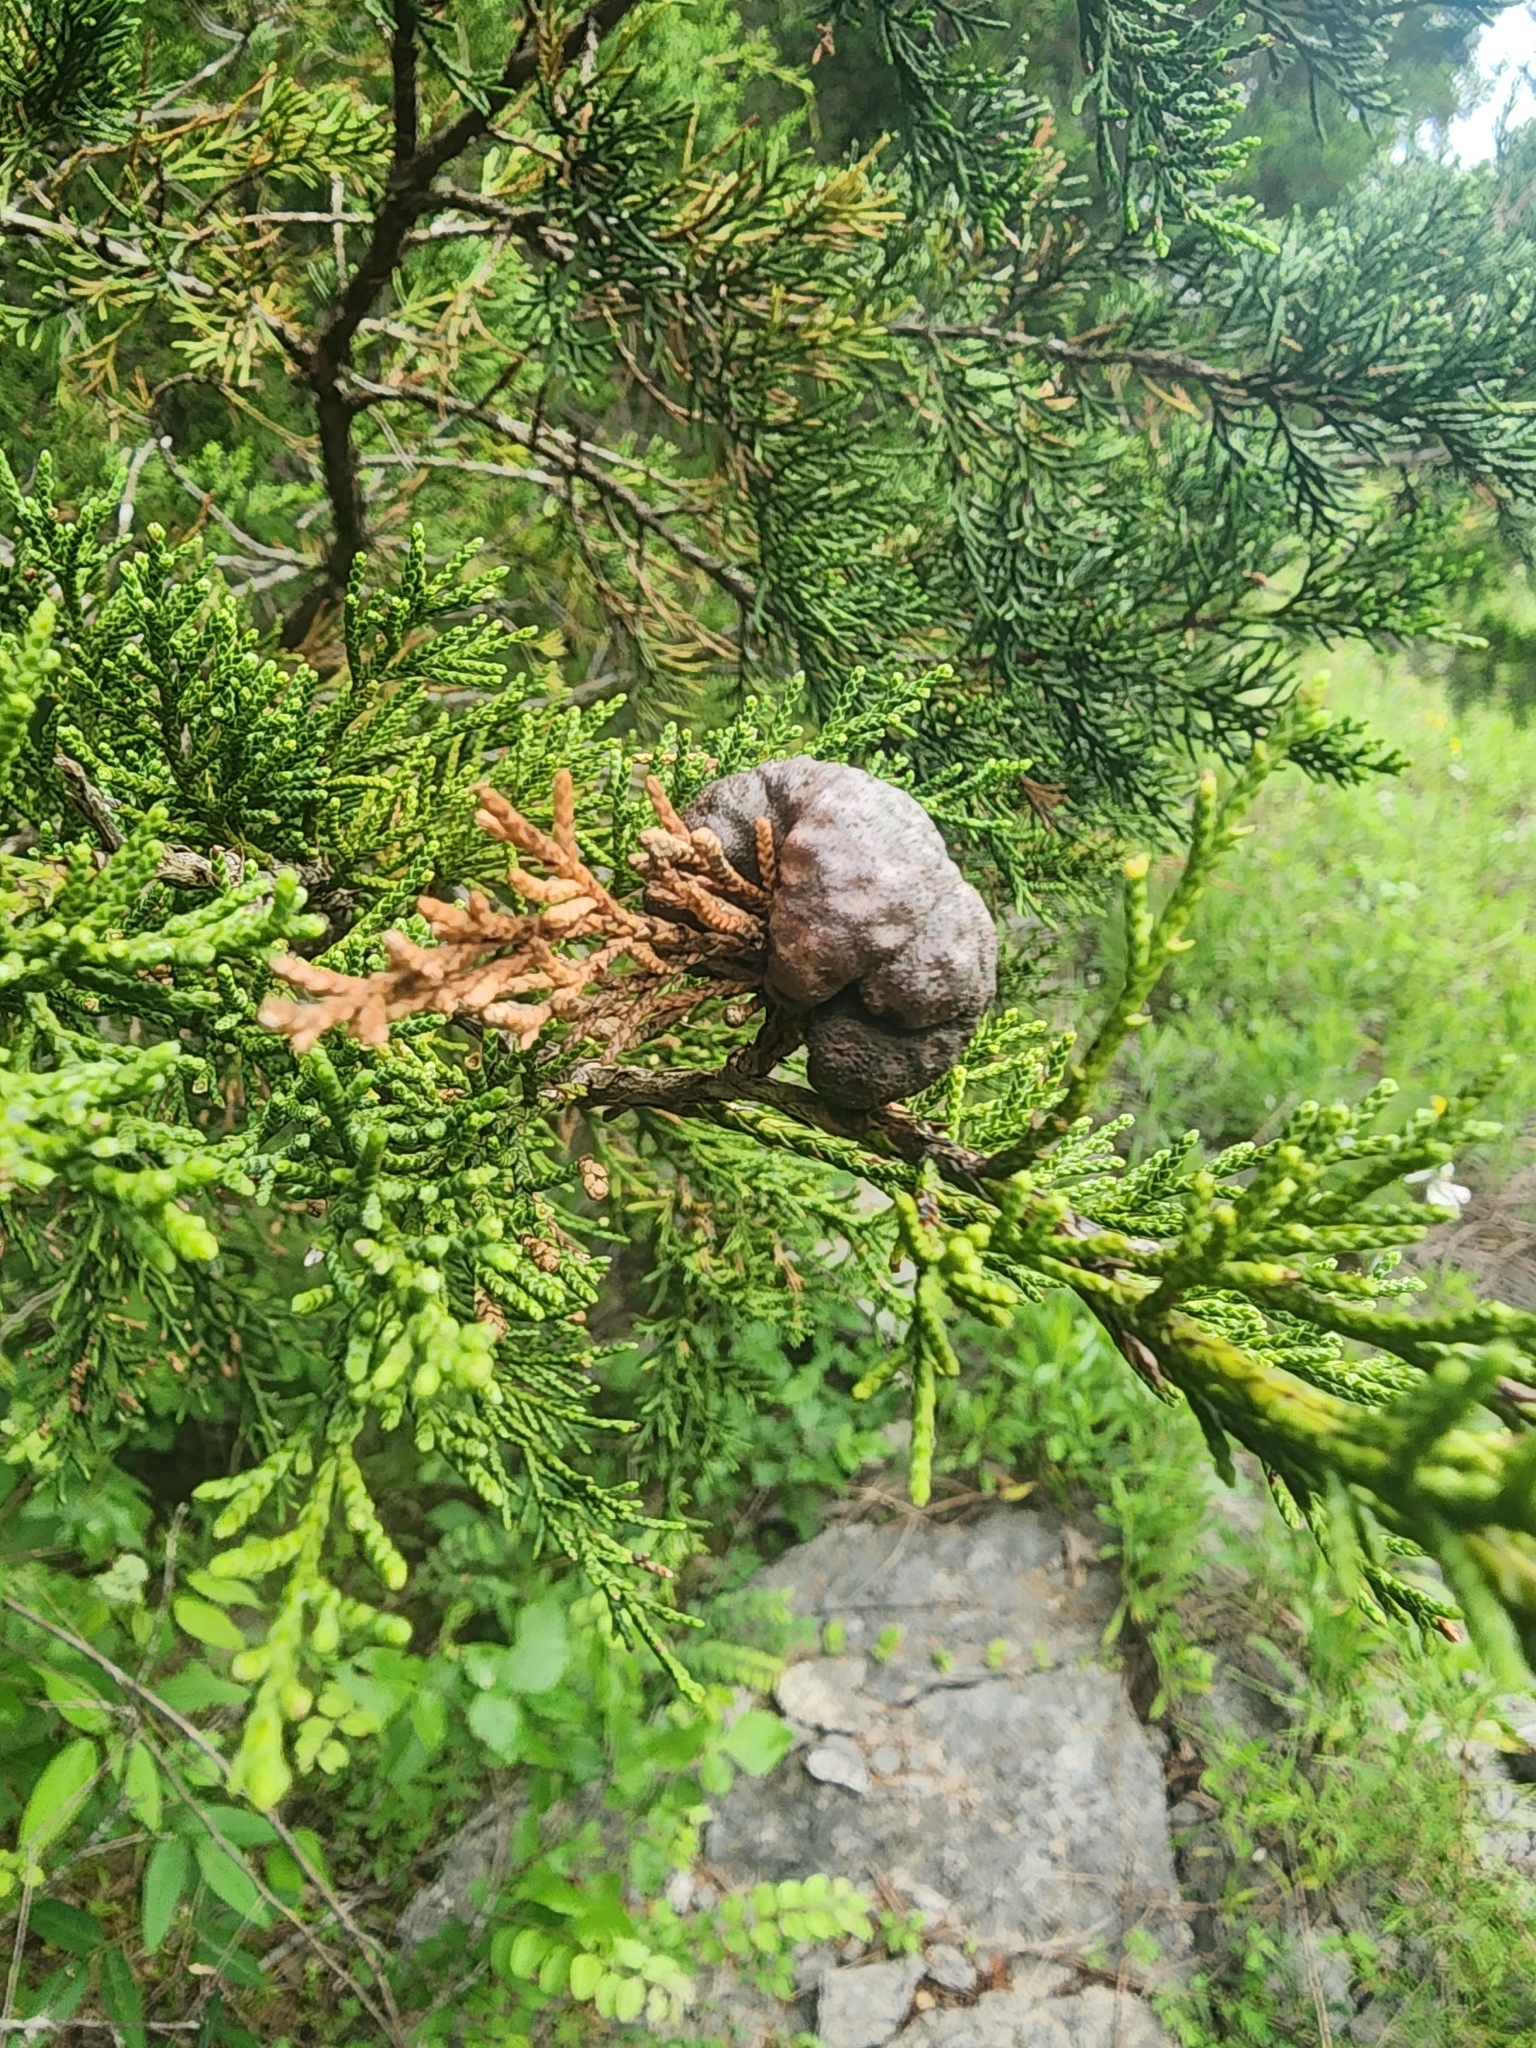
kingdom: Fungi
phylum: Basidiomycota
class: Pucciniomycetes
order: Pucciniales
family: Gymnosporangiaceae
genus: Gymnosporangium
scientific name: Gymnosporangium juniperi-virginianae
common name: Juniper-apple rust
